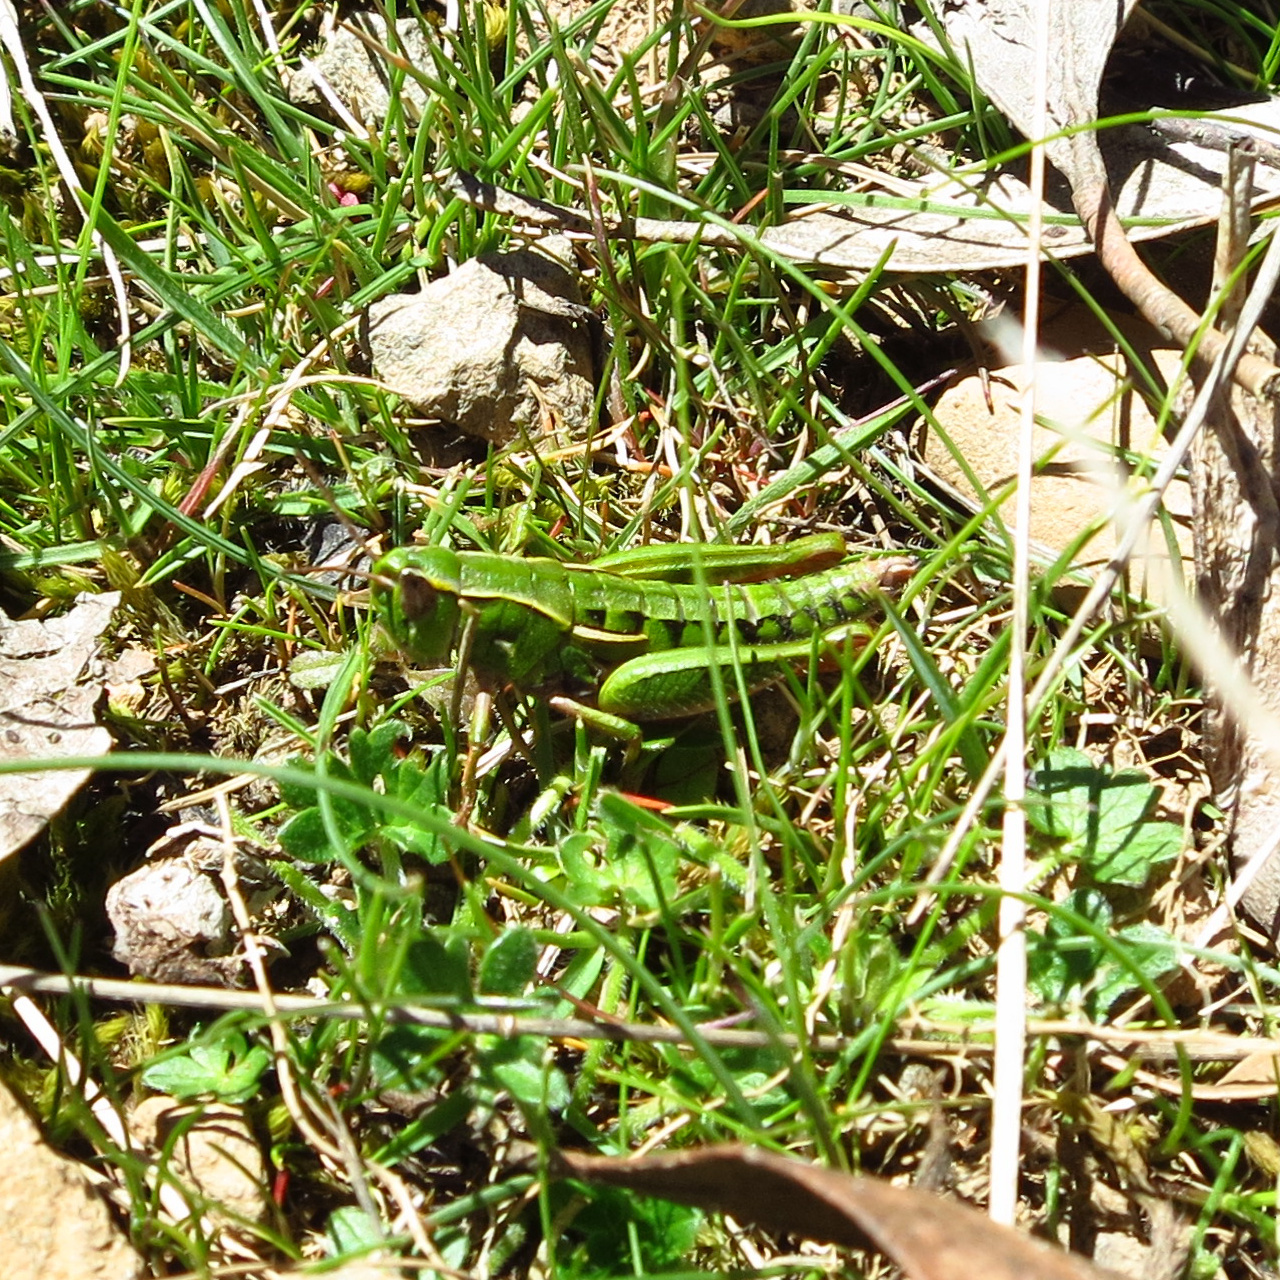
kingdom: Animalia
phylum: Arthropoda
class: Insecta
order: Orthoptera
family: Acrididae
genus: Russalpia
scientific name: Russalpia albertisi
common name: Tassie hopper
